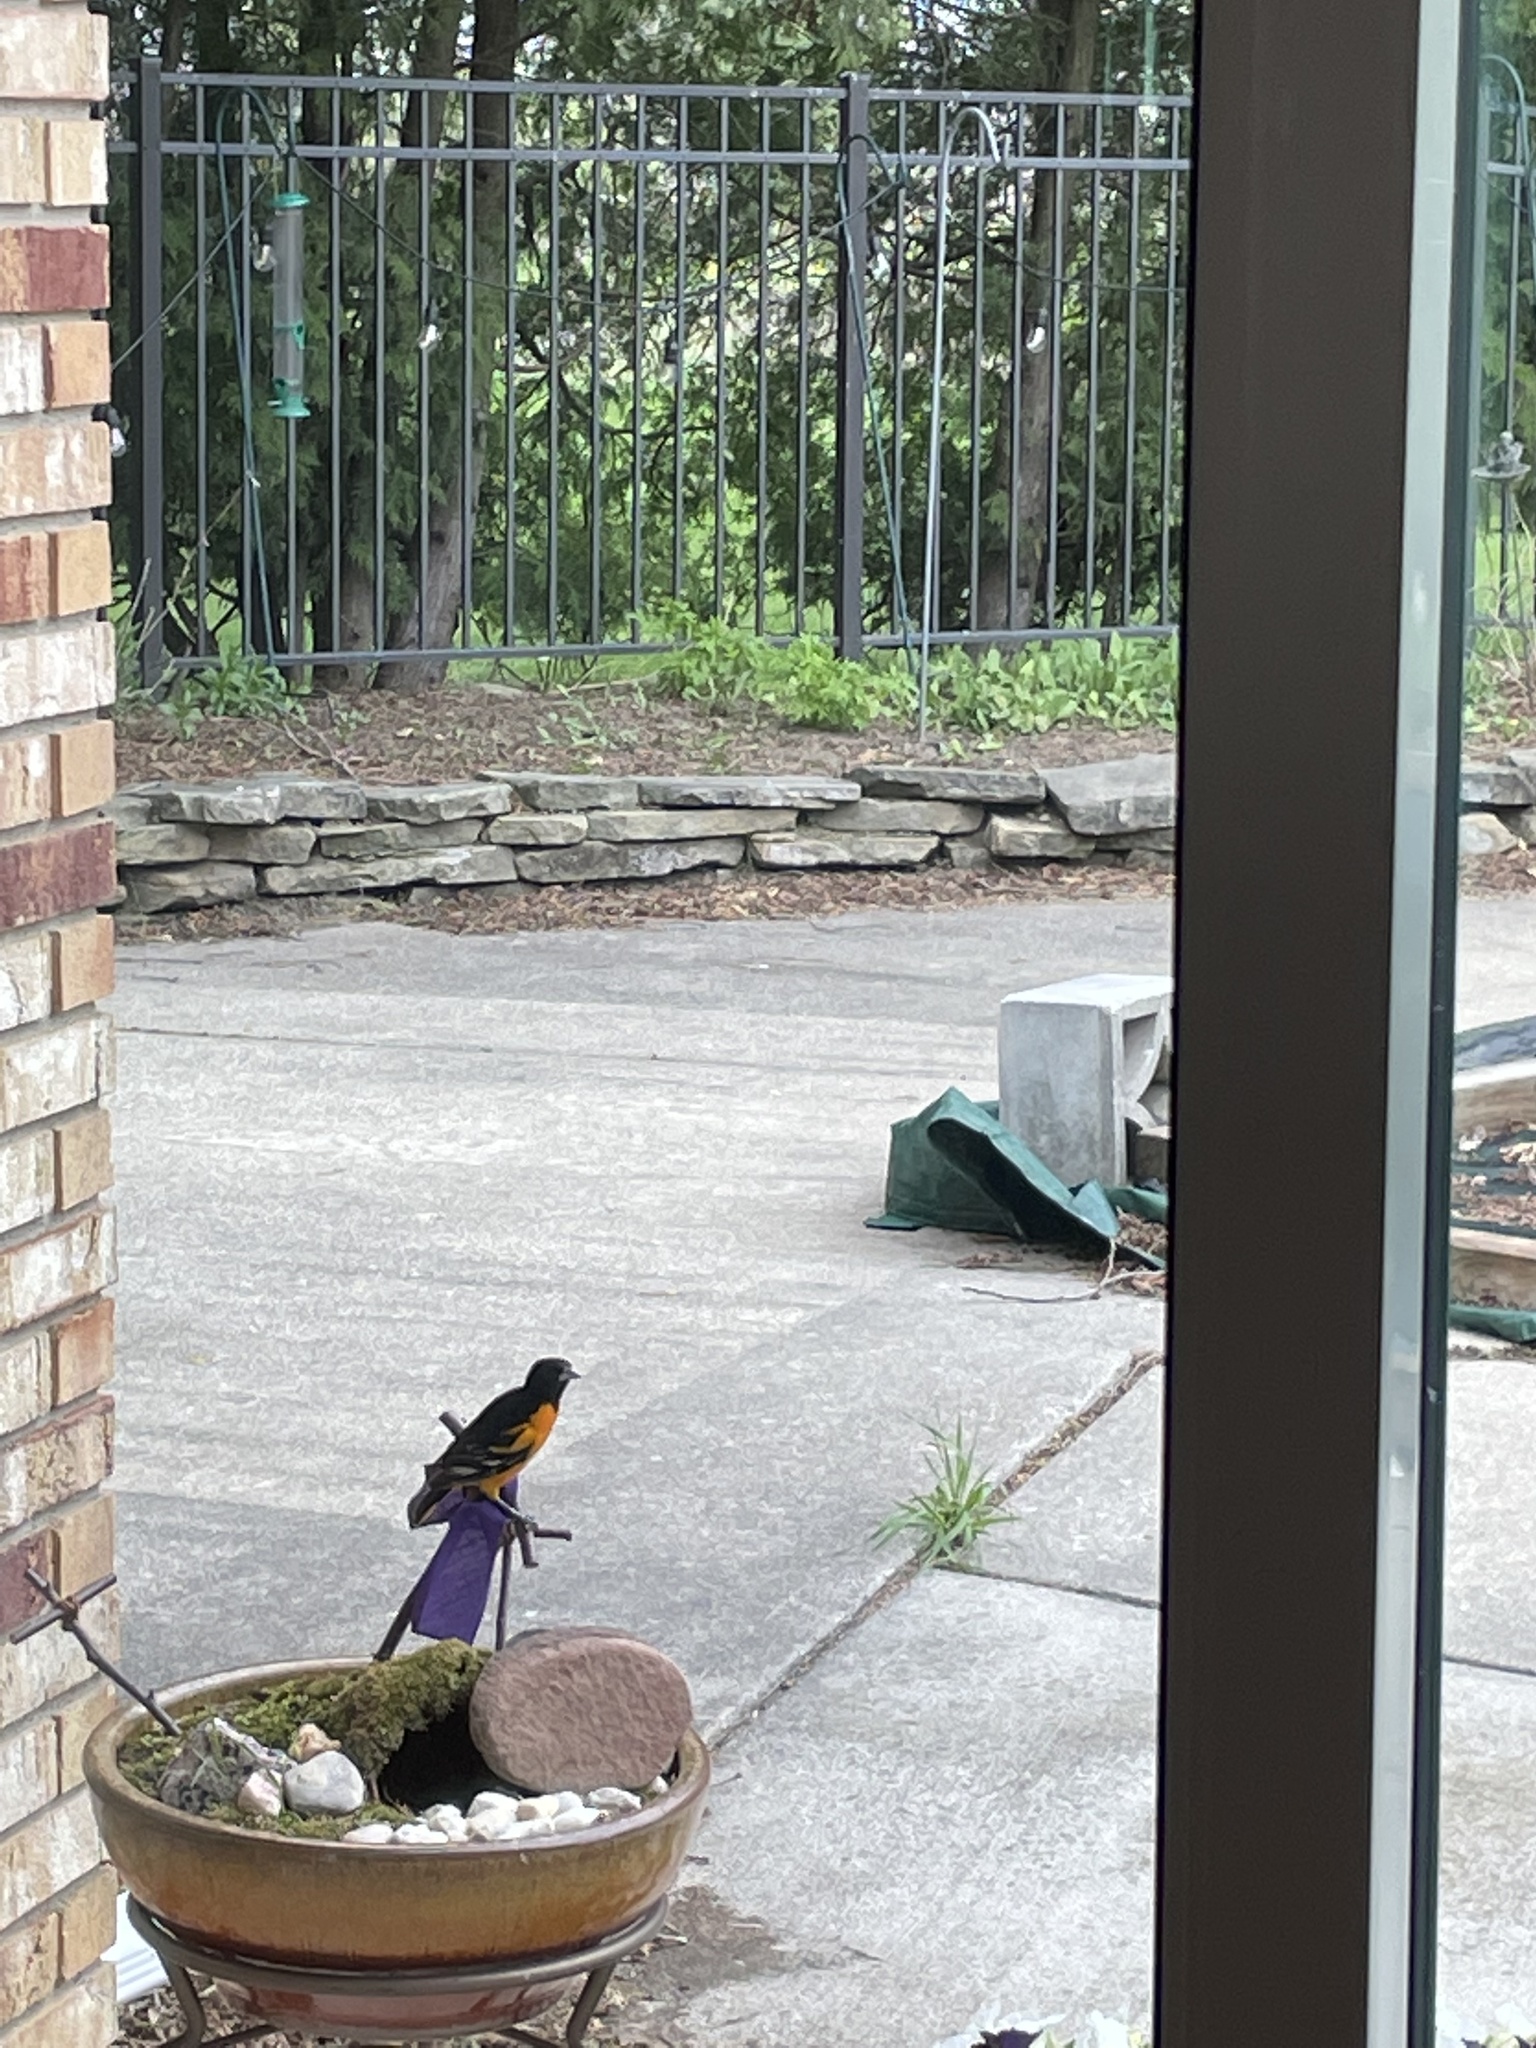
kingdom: Animalia
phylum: Chordata
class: Aves
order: Passeriformes
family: Icteridae
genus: Icterus
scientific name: Icterus galbula
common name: Baltimore oriole
